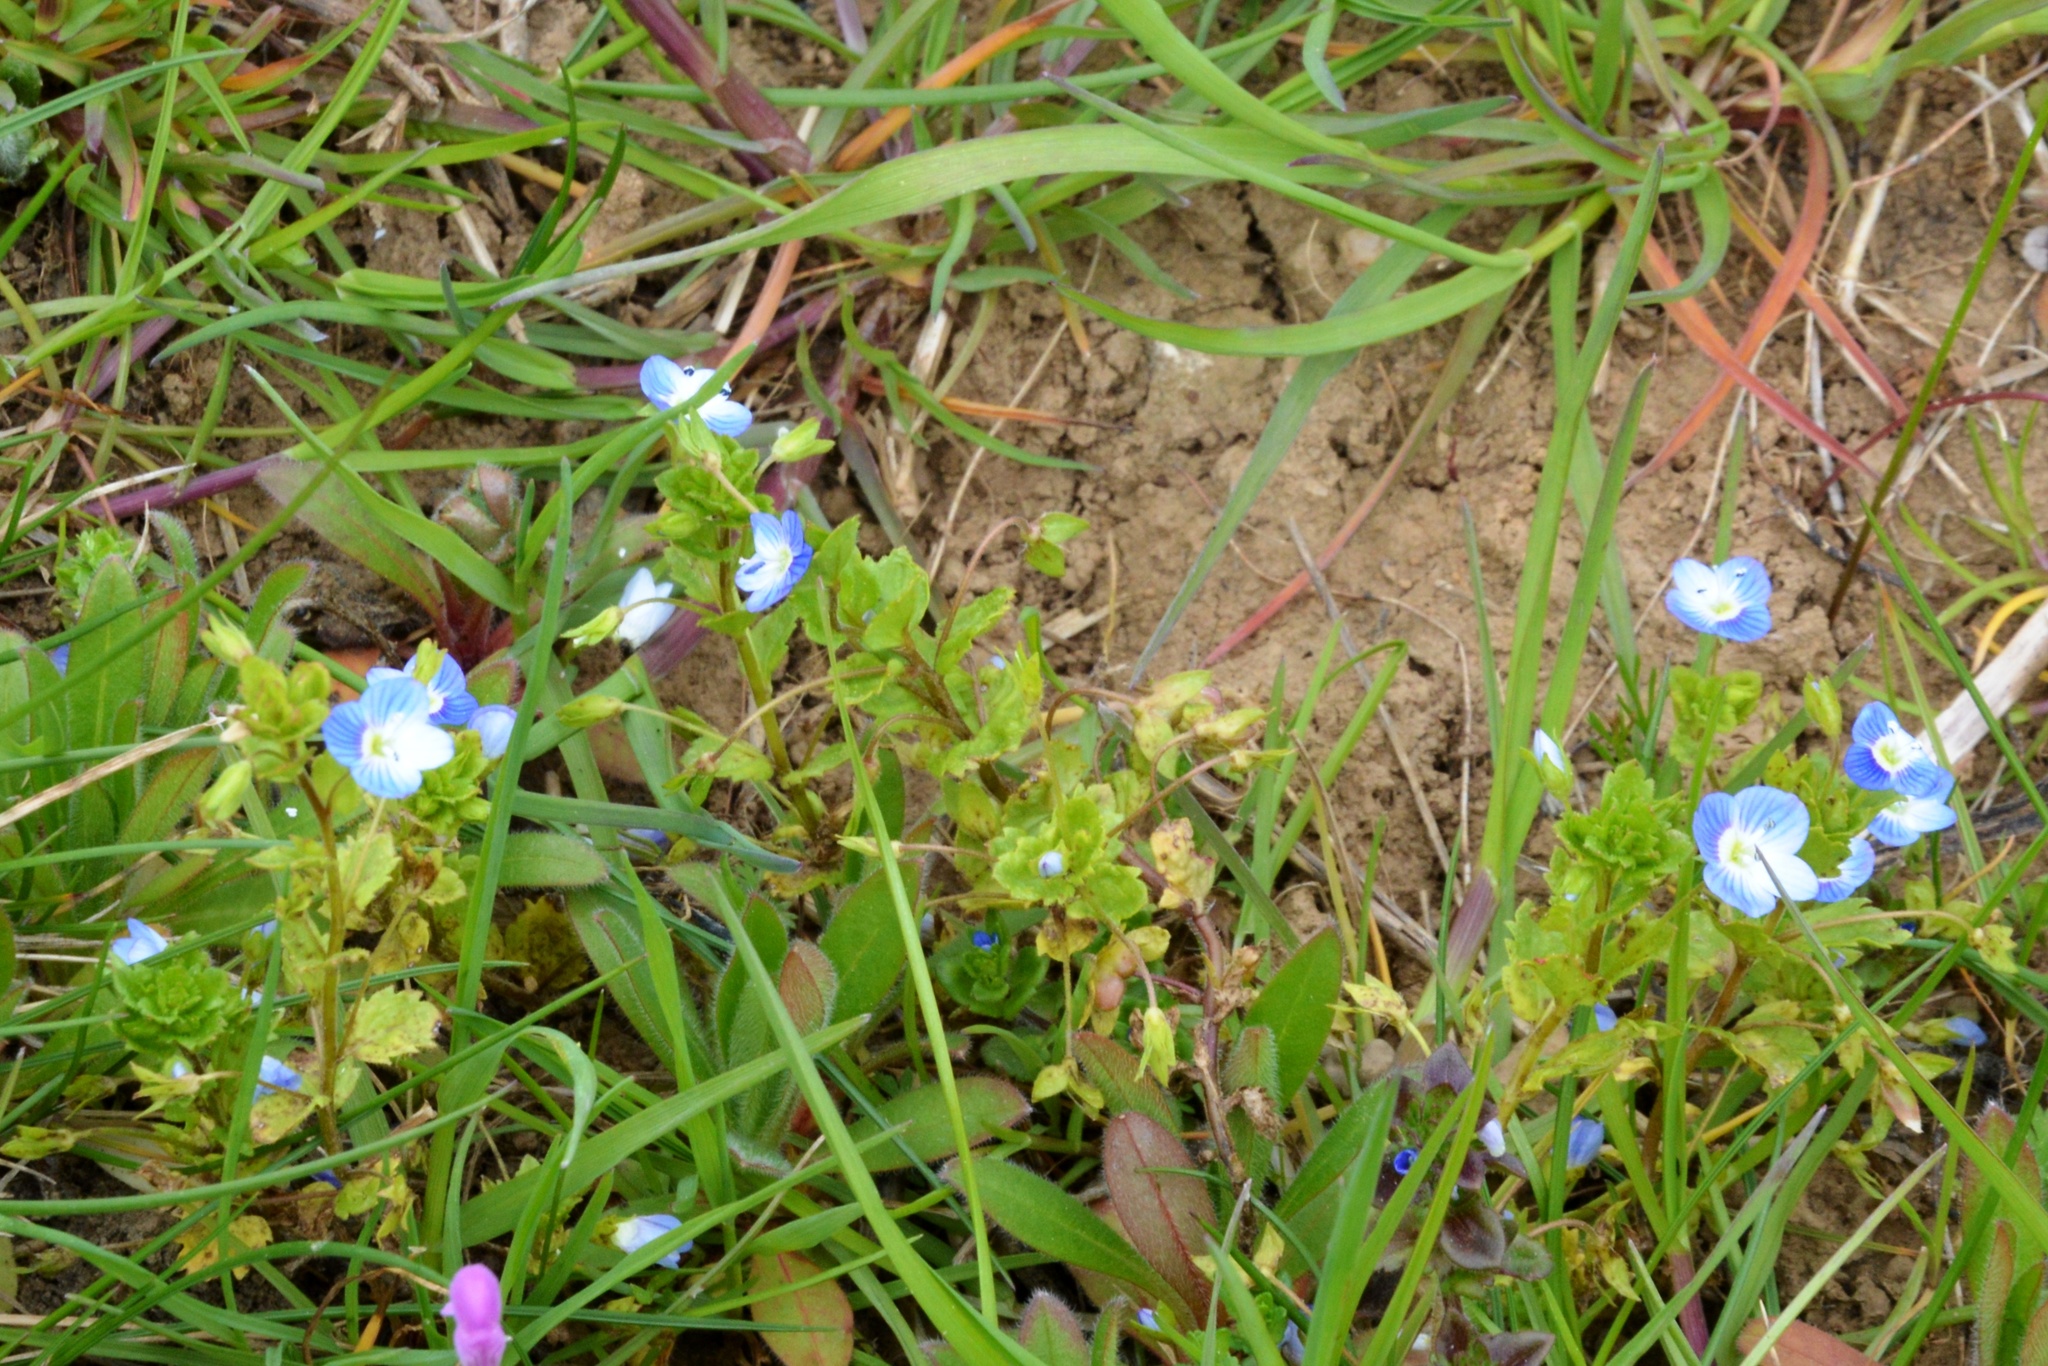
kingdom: Plantae
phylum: Tracheophyta
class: Magnoliopsida
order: Lamiales
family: Plantaginaceae
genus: Veronica
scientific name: Veronica persica
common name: Common field-speedwell
